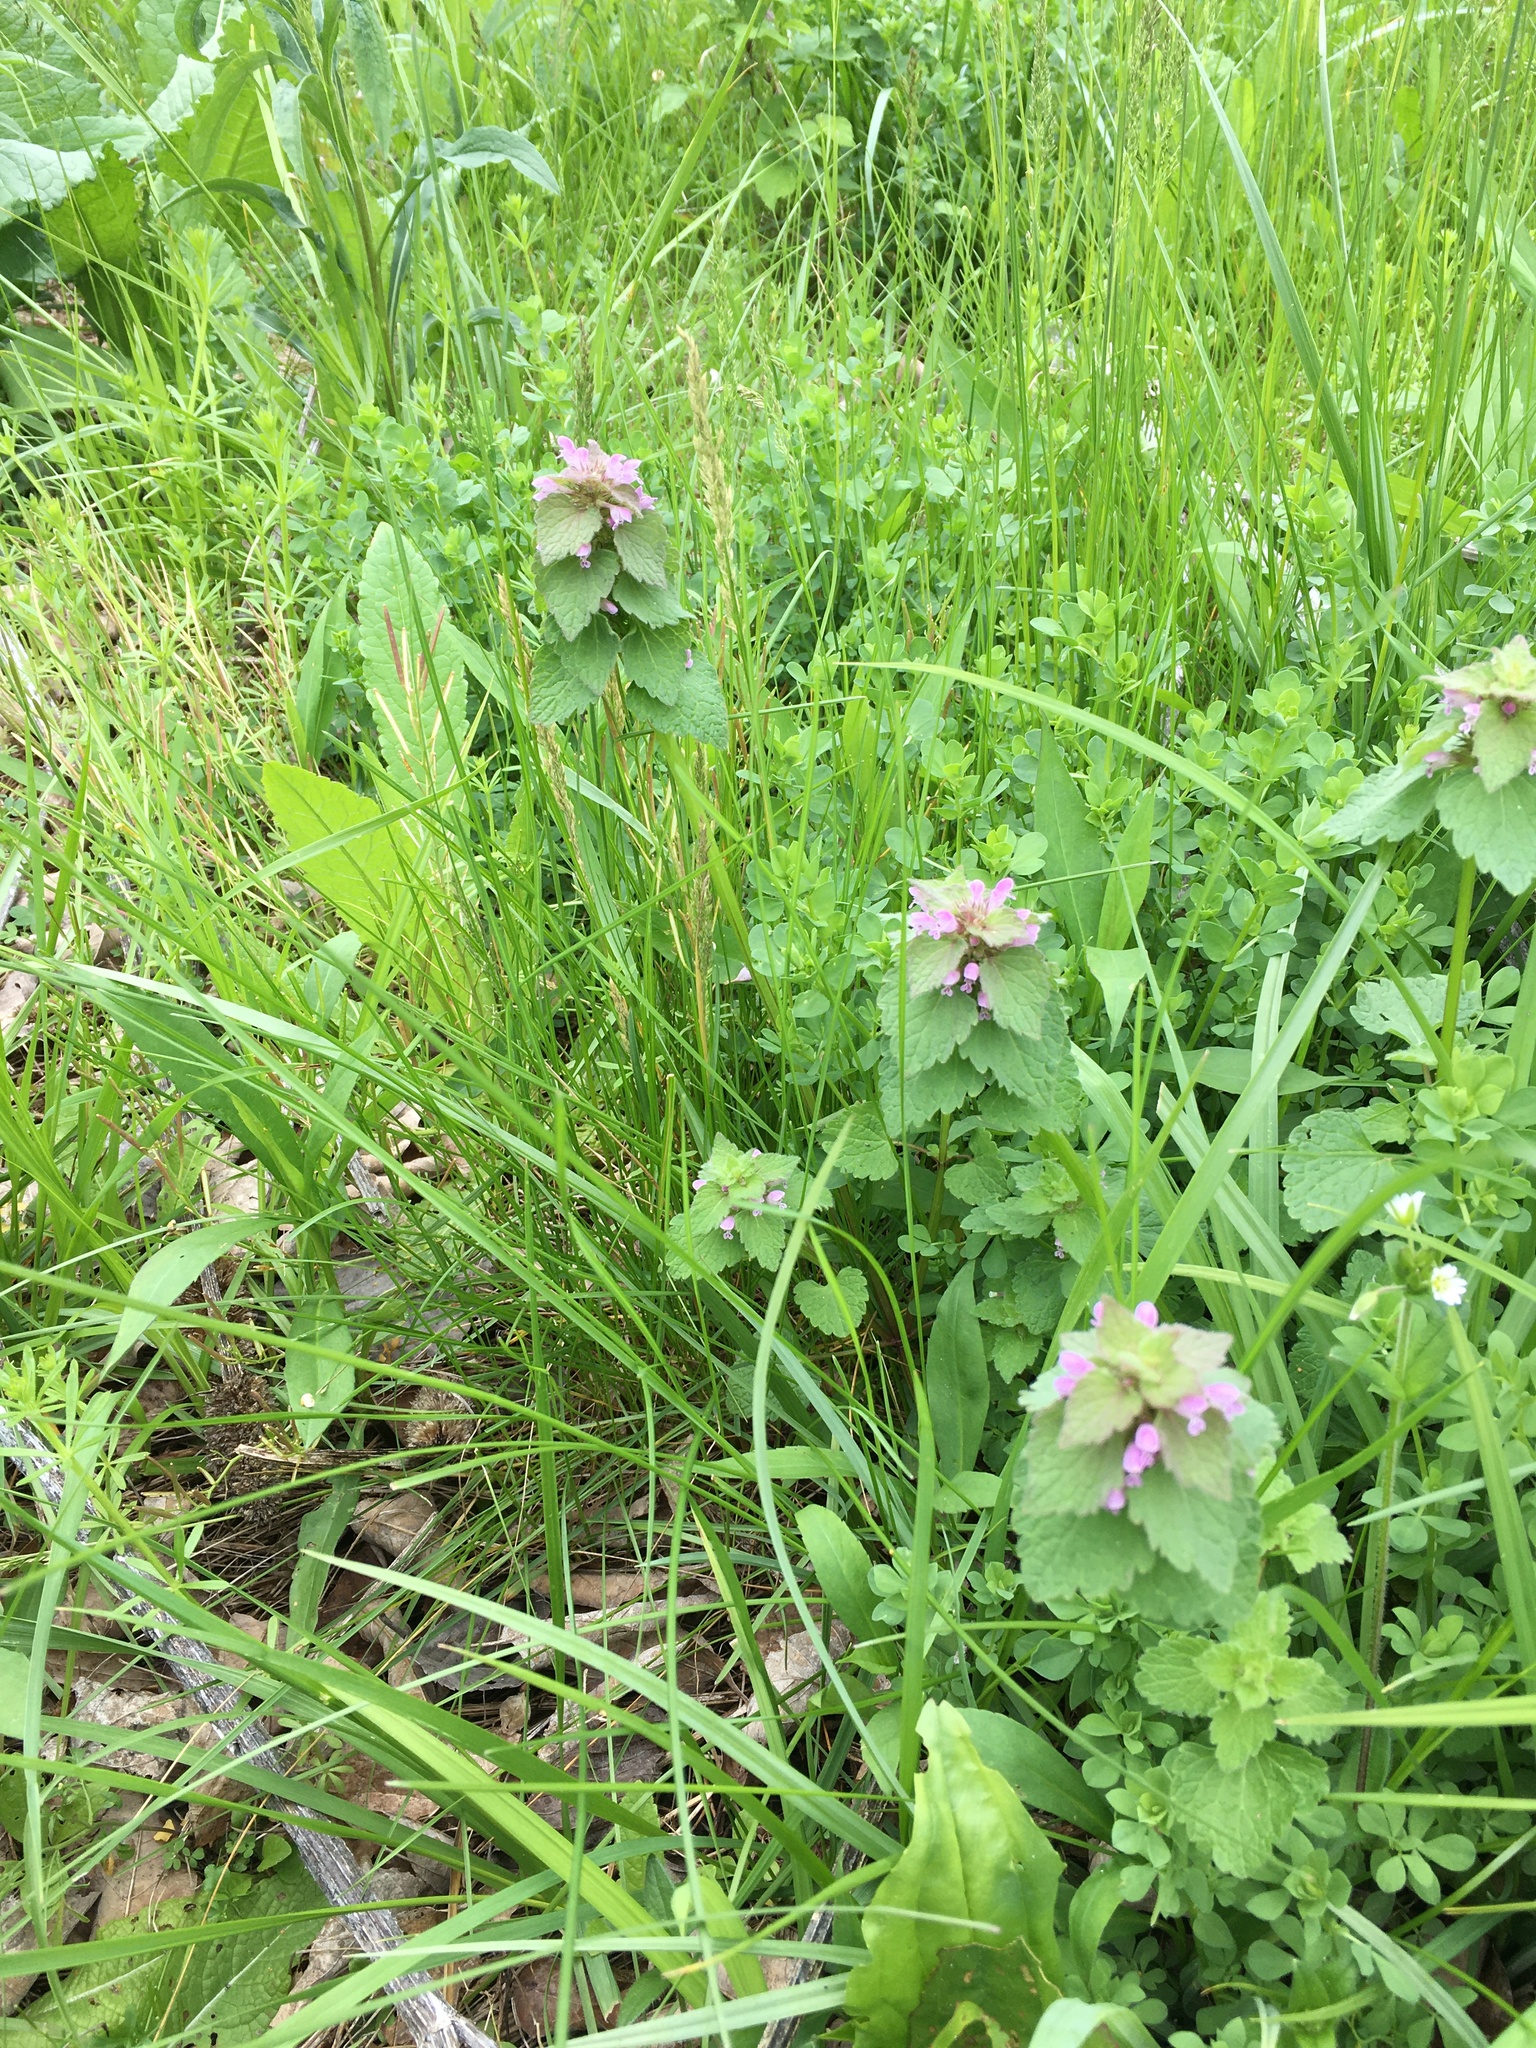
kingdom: Plantae
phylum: Tracheophyta
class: Magnoliopsida
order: Lamiales
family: Lamiaceae
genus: Lamium
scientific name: Lamium purpureum
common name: Red dead-nettle
